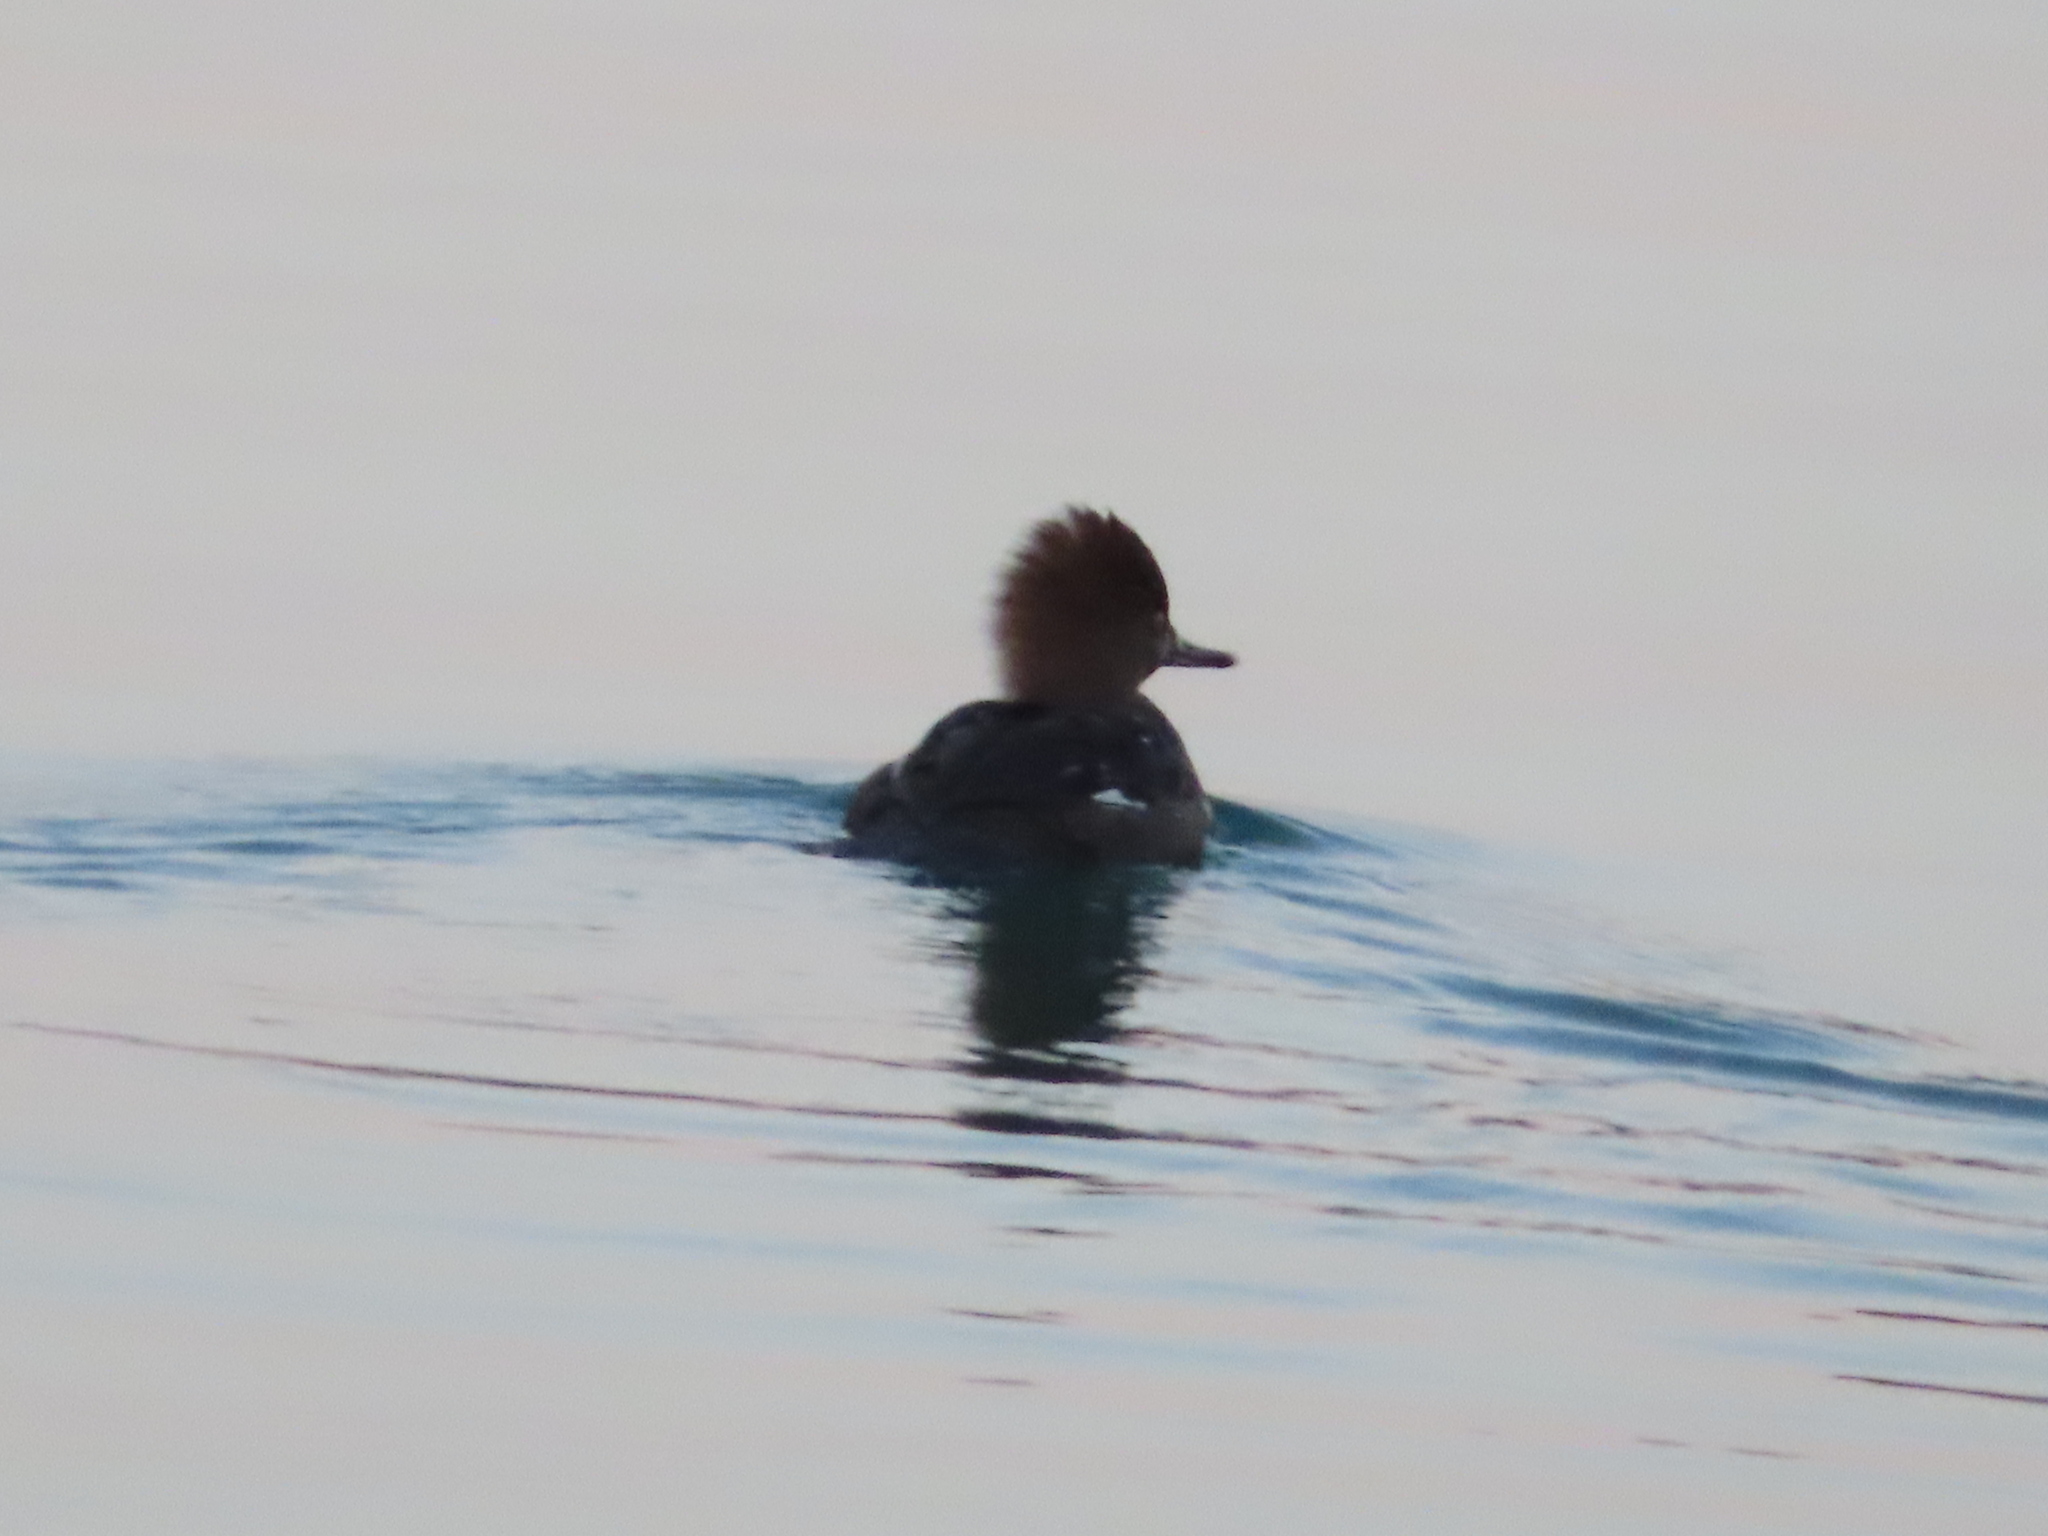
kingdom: Animalia
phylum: Chordata
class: Aves
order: Anseriformes
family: Anatidae
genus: Lophodytes
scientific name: Lophodytes cucullatus
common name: Hooded merganser
